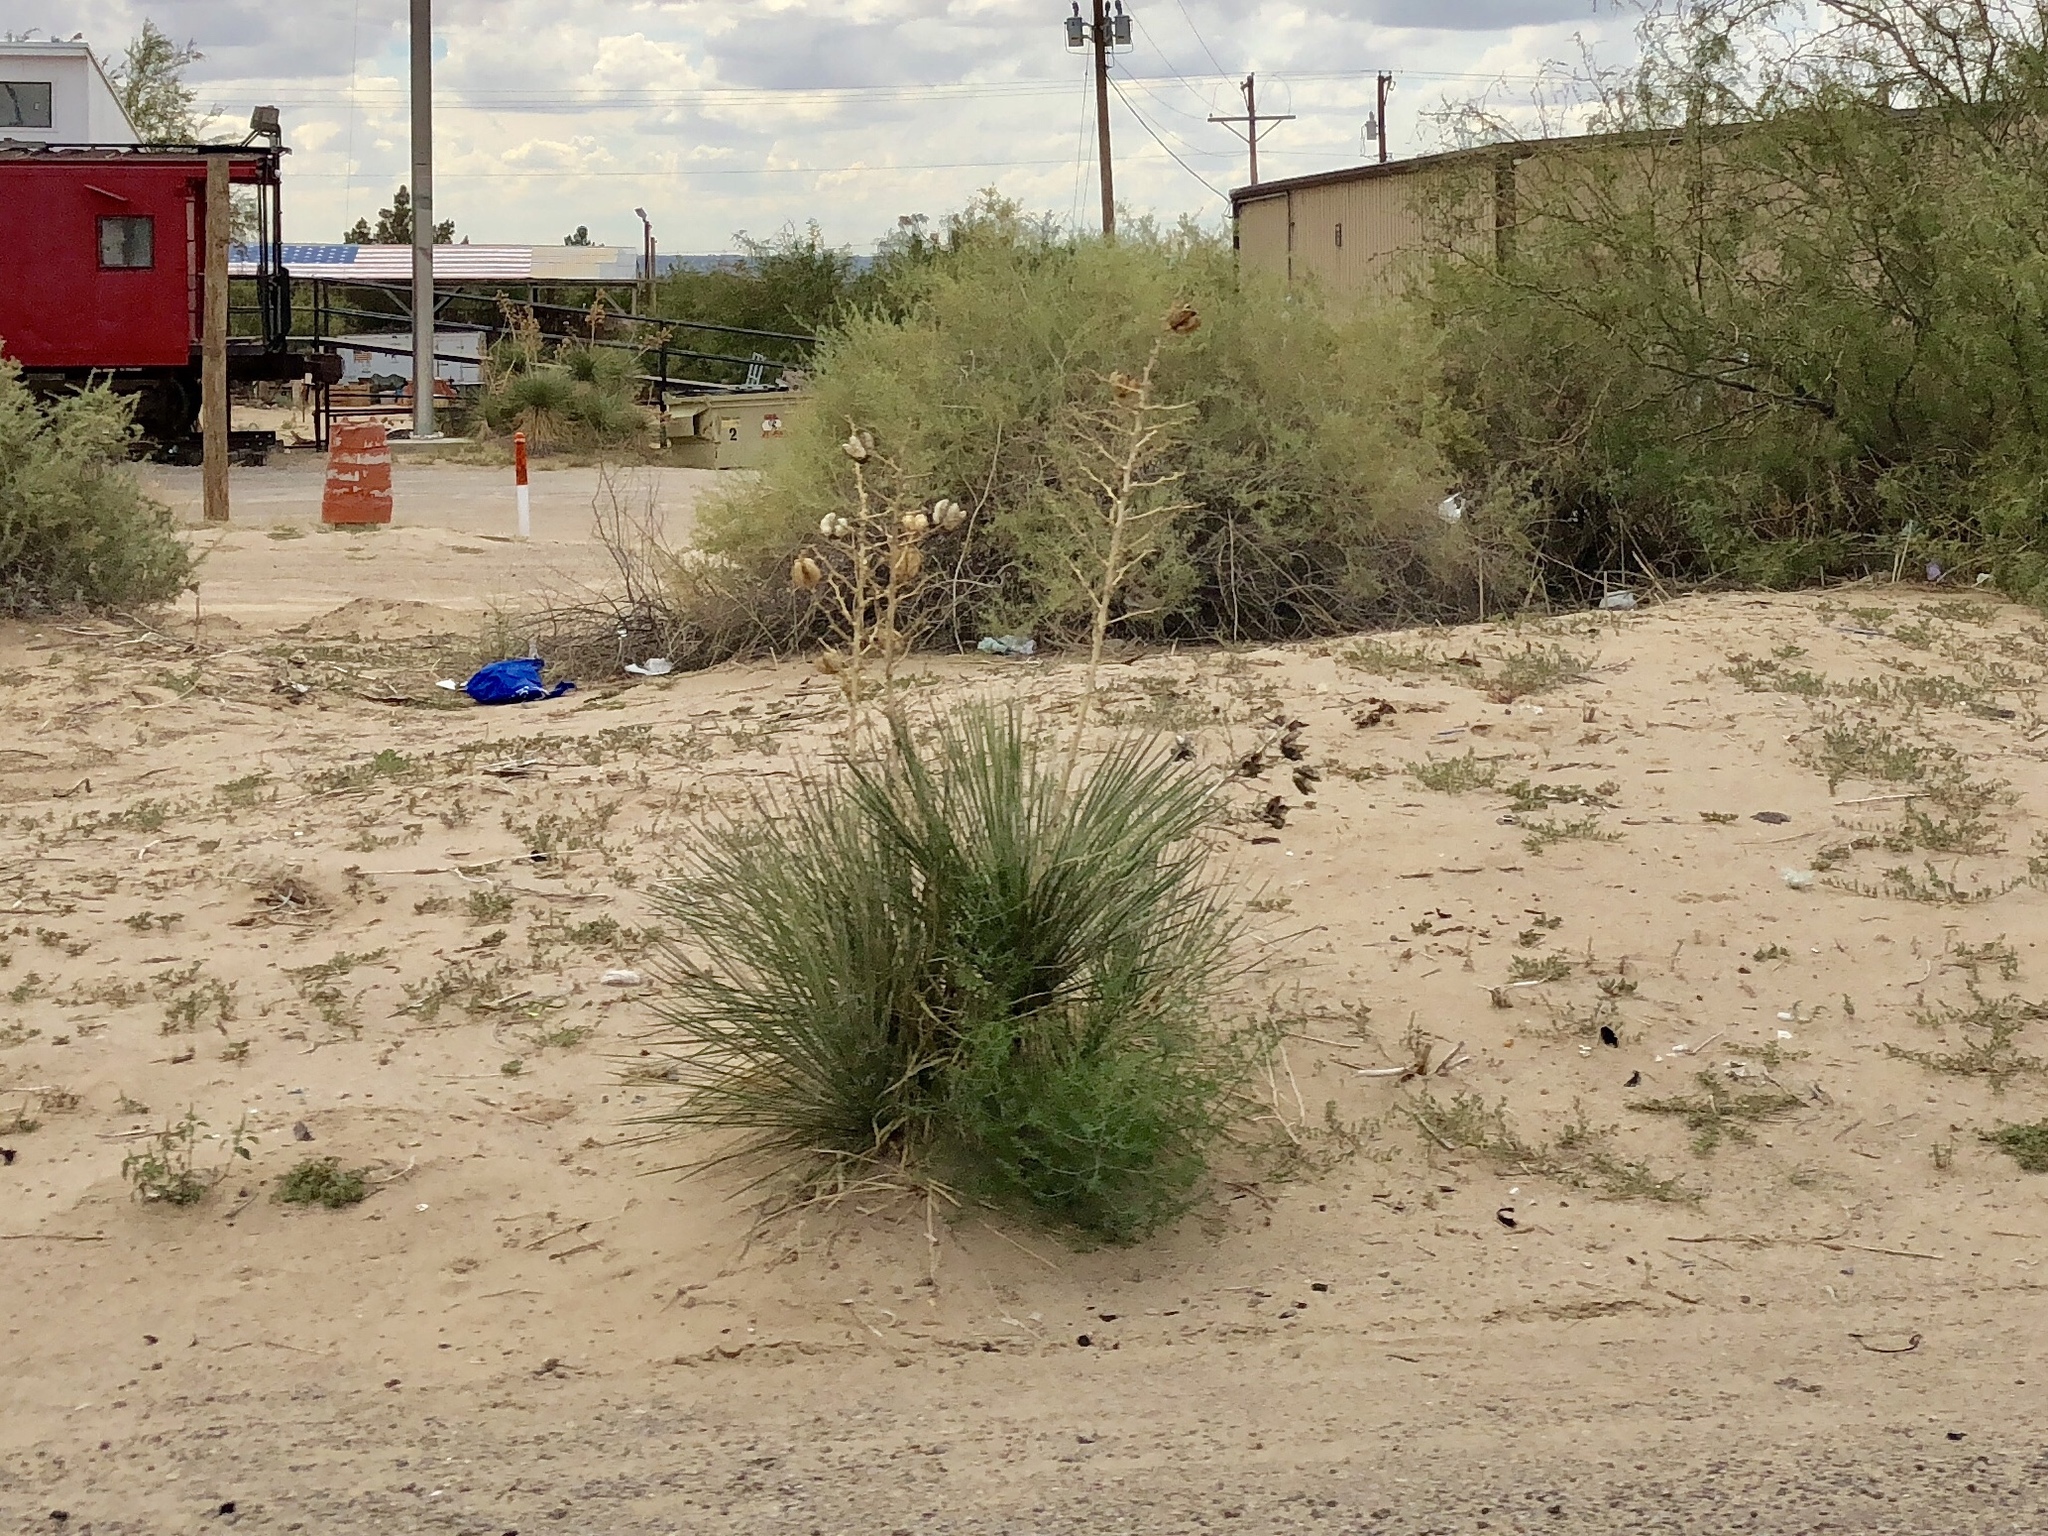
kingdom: Plantae
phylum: Tracheophyta
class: Liliopsida
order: Asparagales
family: Asparagaceae
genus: Yucca
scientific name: Yucca elata
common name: Palmella
